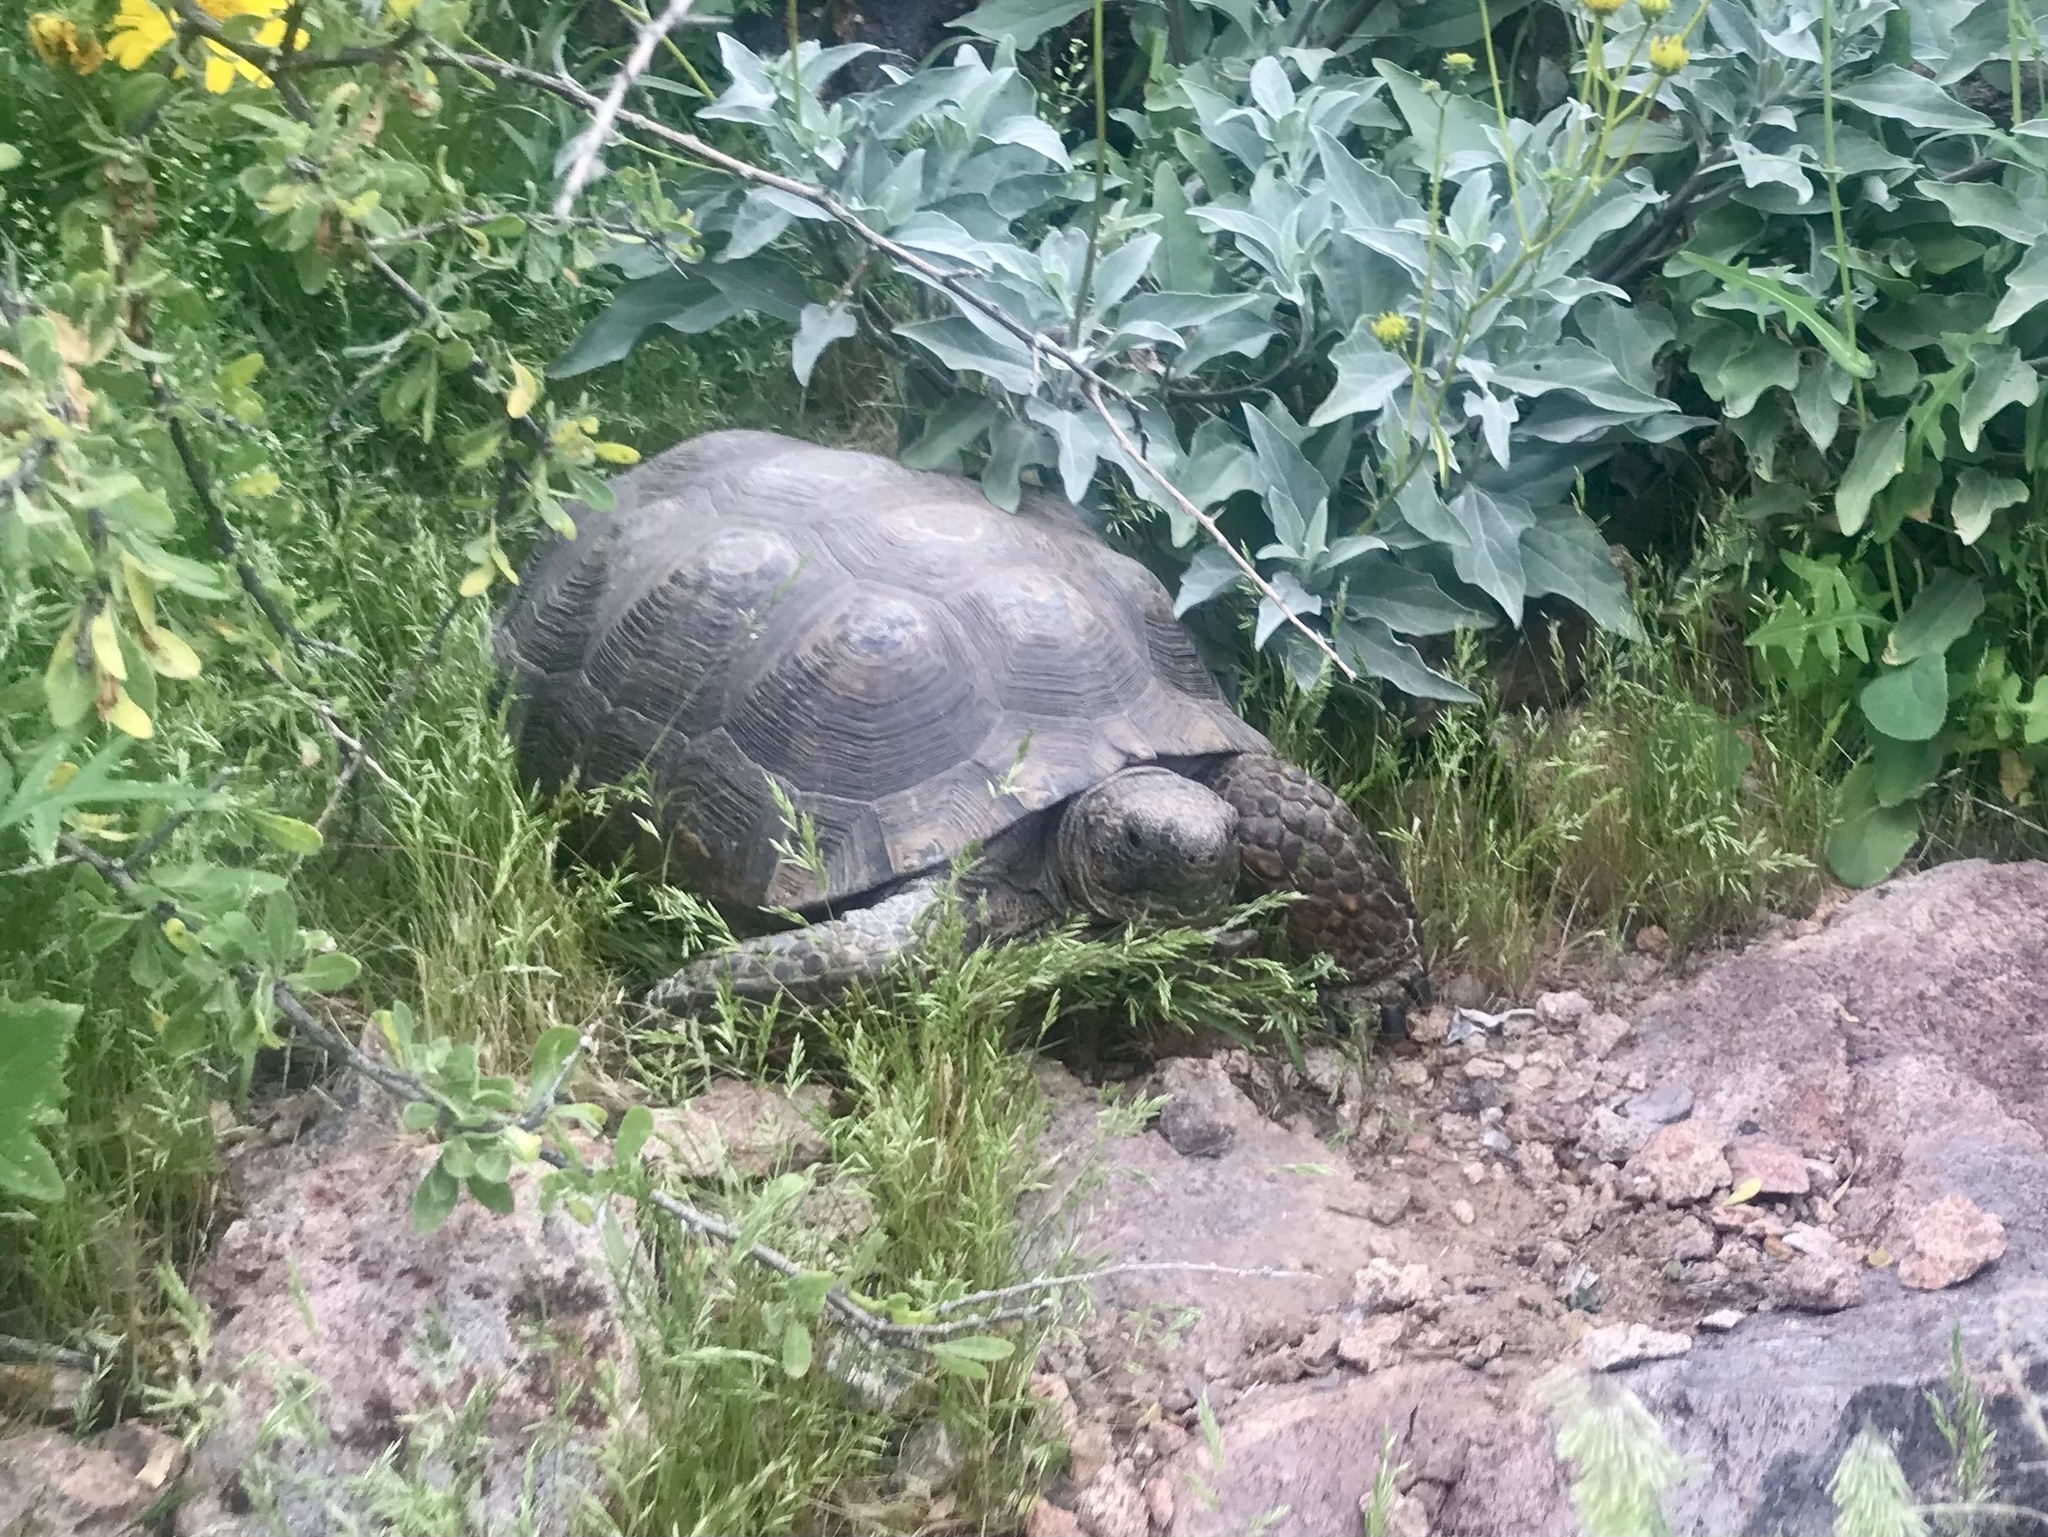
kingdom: Animalia
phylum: Chordata
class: Testudines
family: Testudinidae
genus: Gopherus
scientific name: Gopherus morafkai
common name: Sonoran desert tortoise
